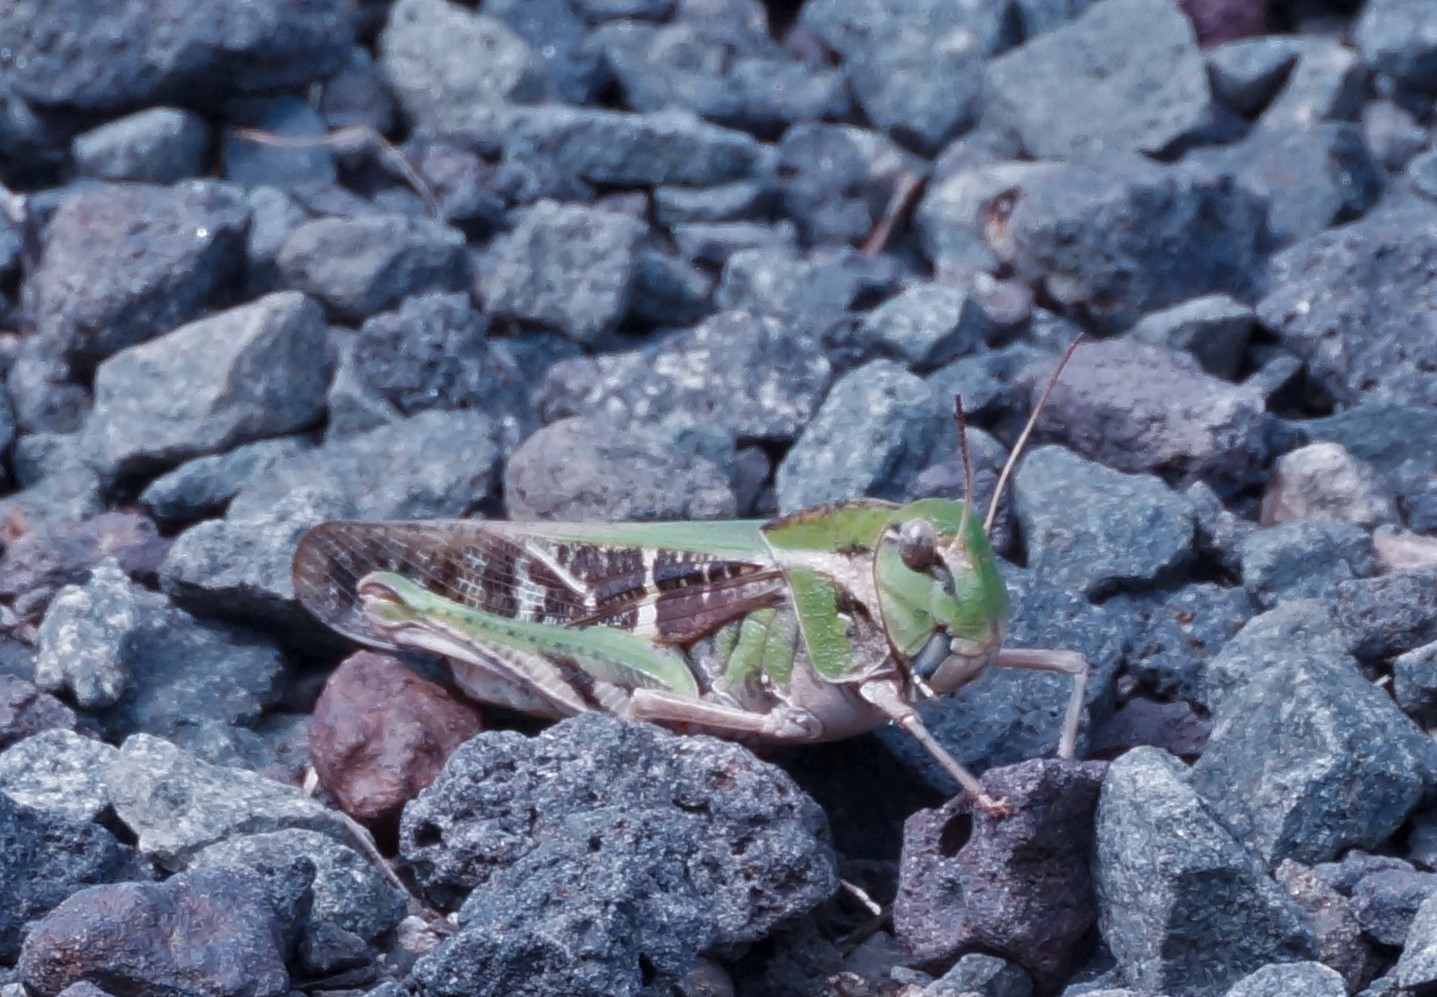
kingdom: Animalia
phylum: Arthropoda
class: Insecta
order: Orthoptera
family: Acrididae
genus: Gastrimargus
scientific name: Gastrimargus musicus
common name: Yellow-winged locust
